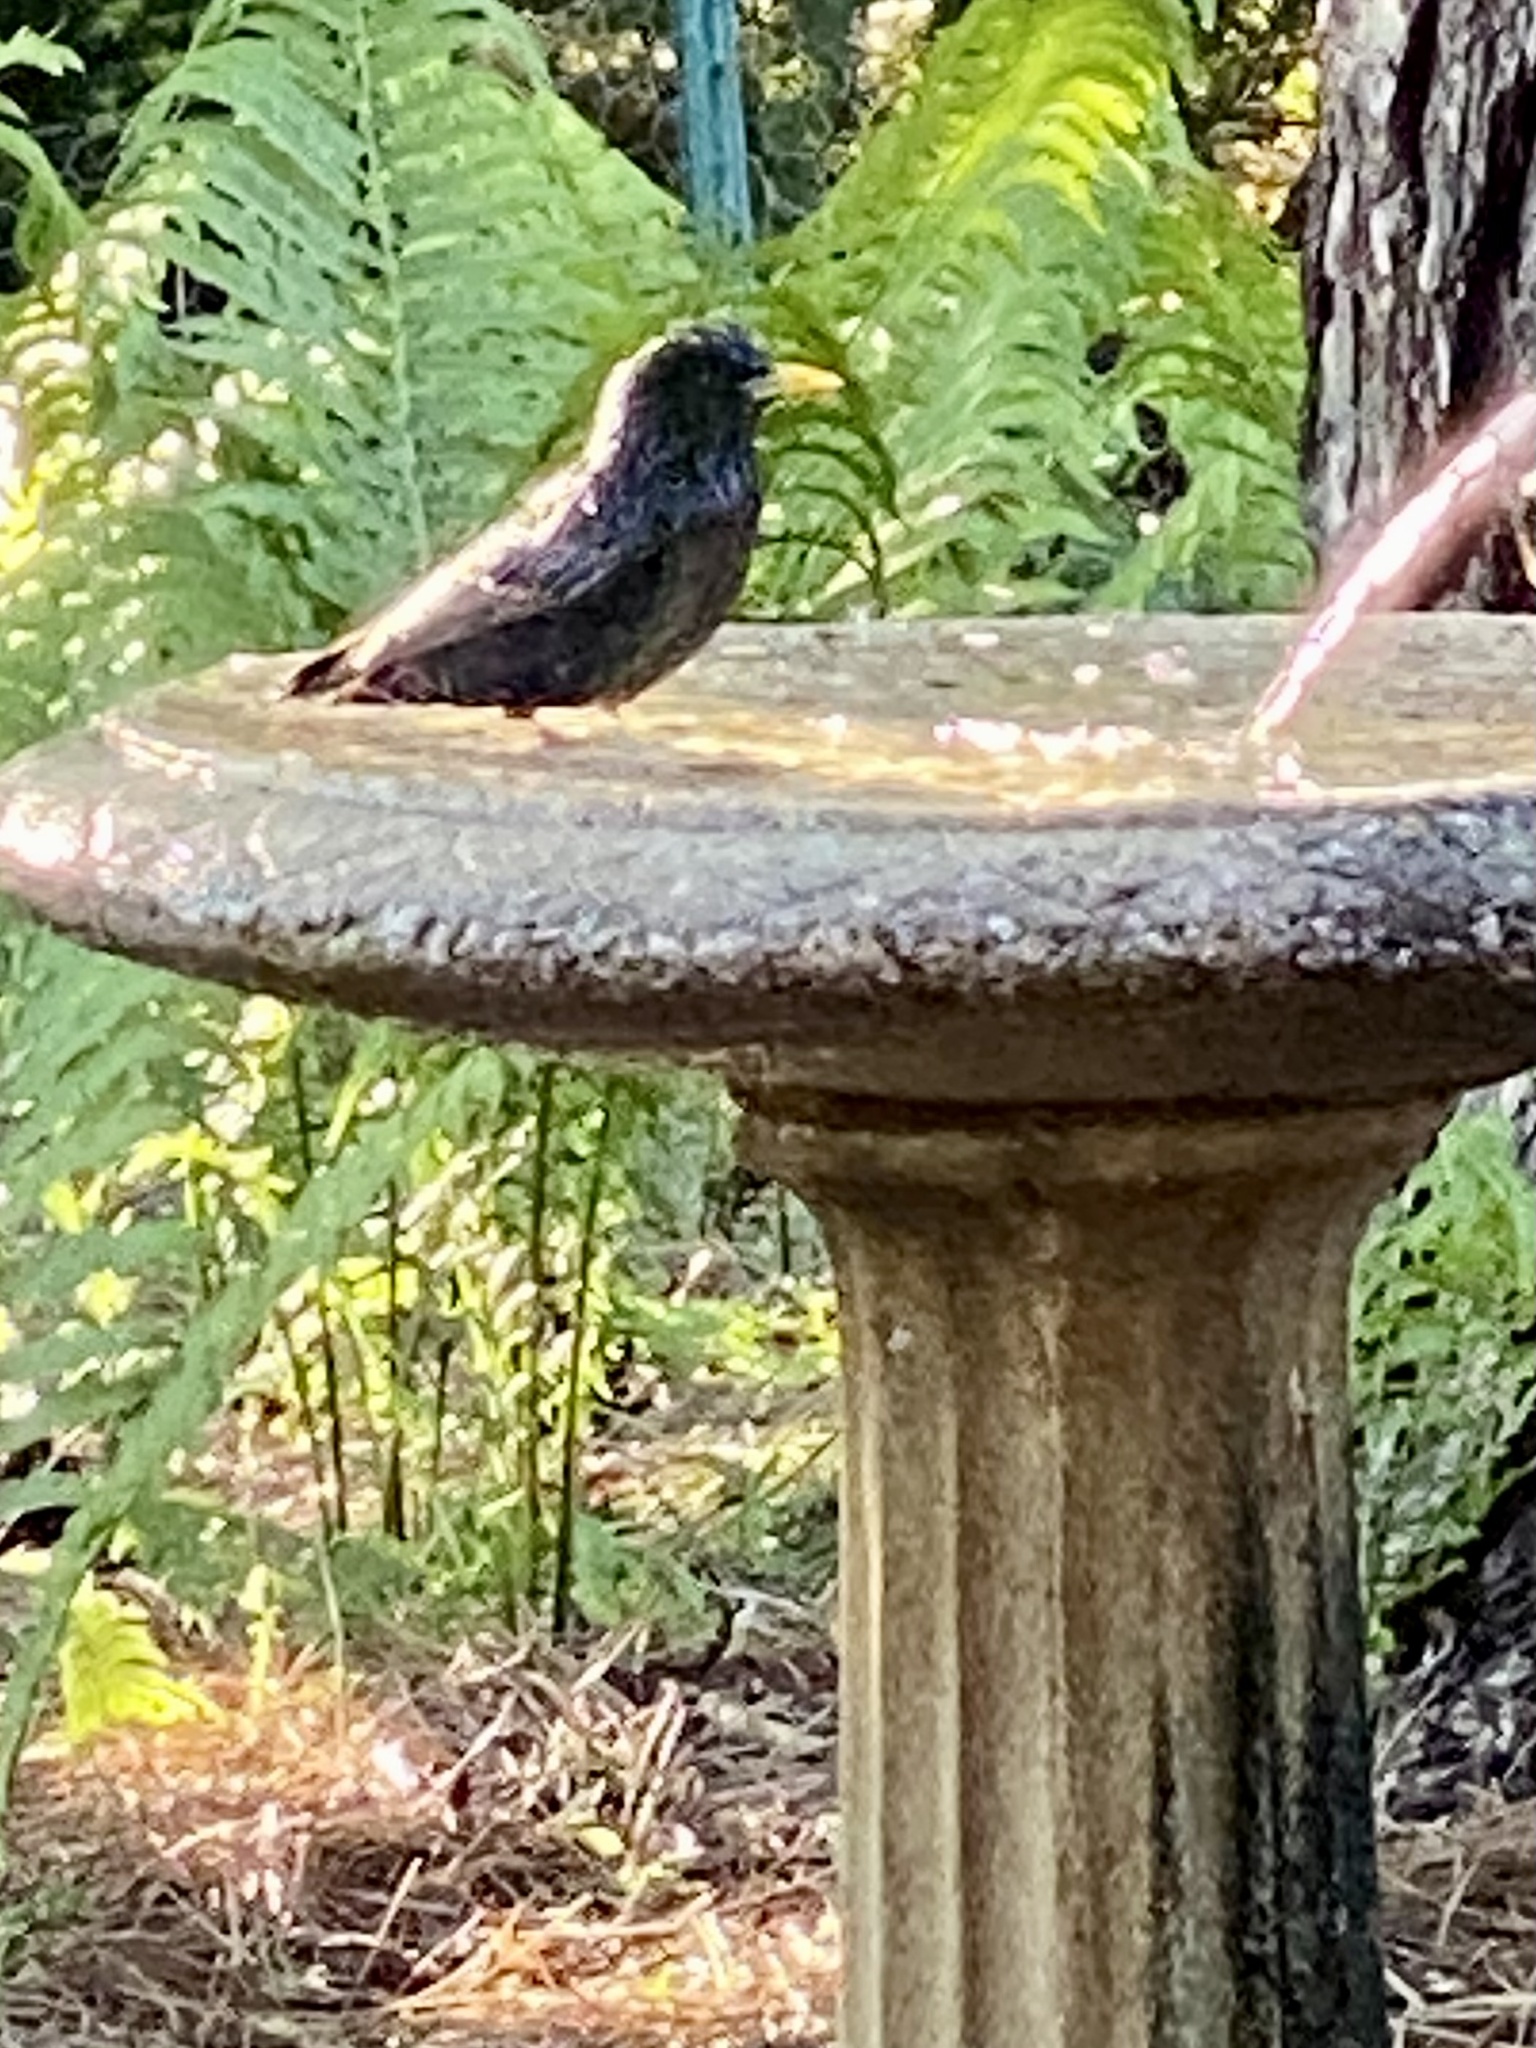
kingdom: Animalia
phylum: Chordata
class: Aves
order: Passeriformes
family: Sturnidae
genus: Sturnus
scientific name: Sturnus vulgaris
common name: Common starling
